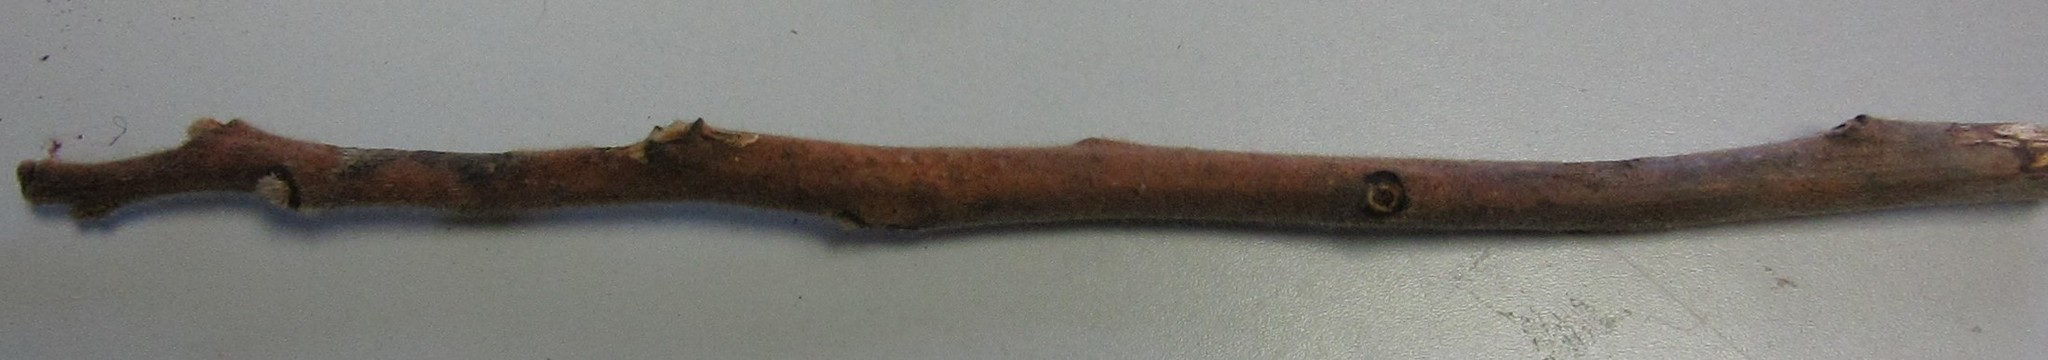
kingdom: Plantae
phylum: Tracheophyta
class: Magnoliopsida
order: Sapindales
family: Anacardiaceae
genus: Rhus
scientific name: Rhus typhina
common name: Staghorn sumac
